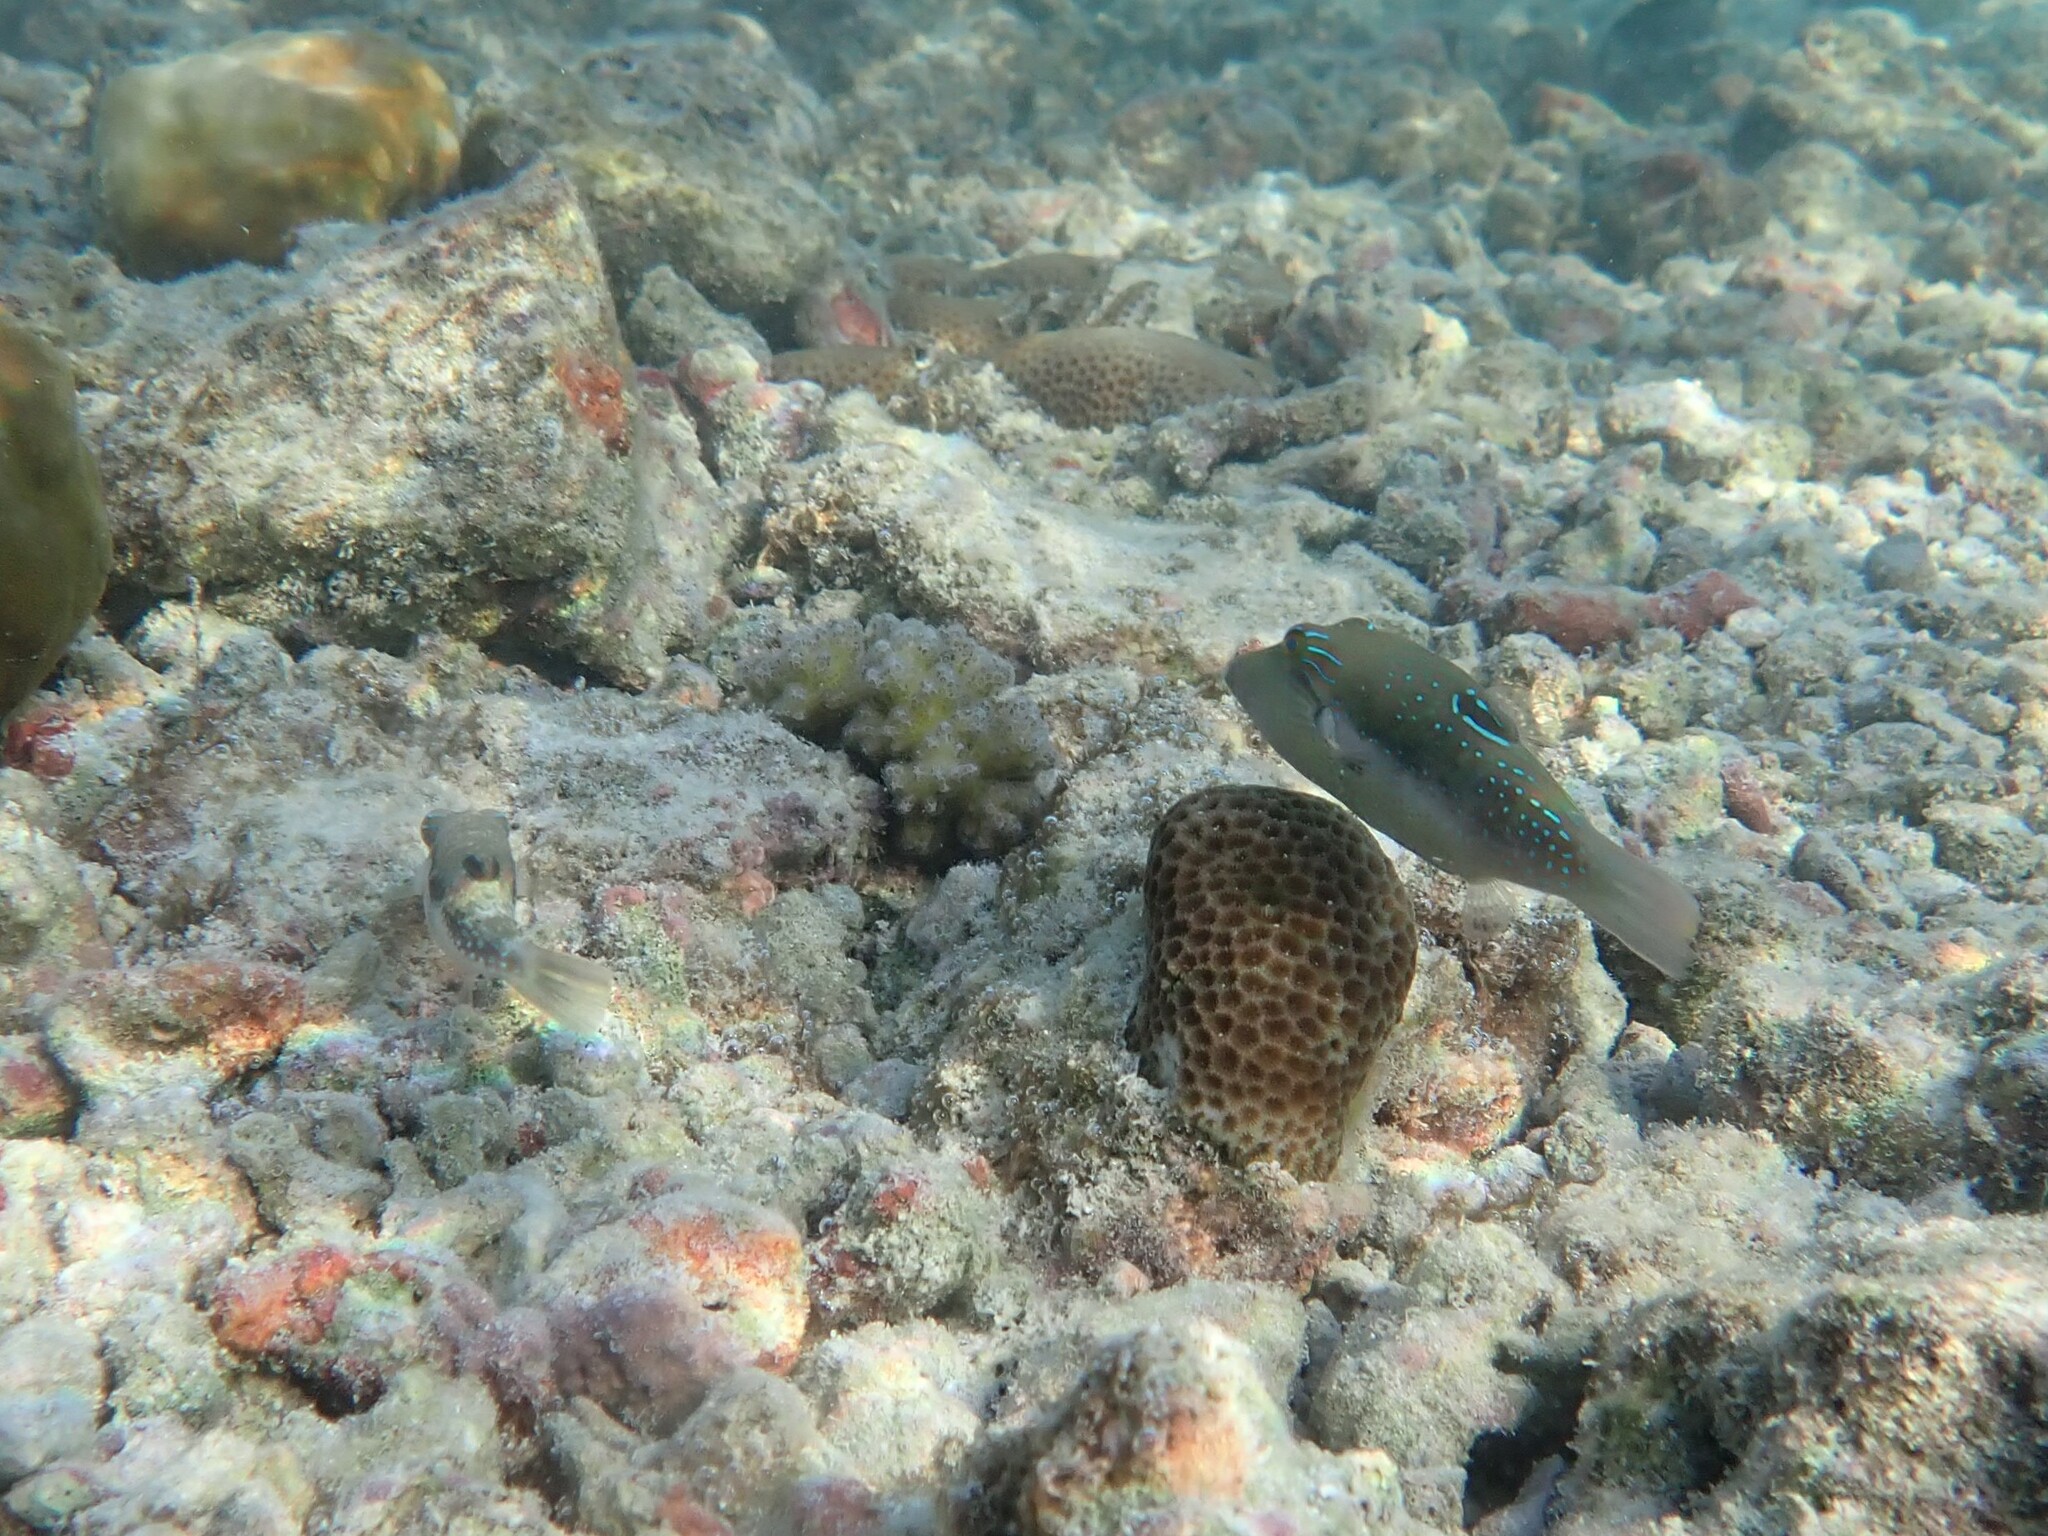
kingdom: Animalia
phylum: Chordata
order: Tetraodontiformes
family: Tetraodontidae
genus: Canthigaster
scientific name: Canthigaster bennetti
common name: Bennett's pufferfish
